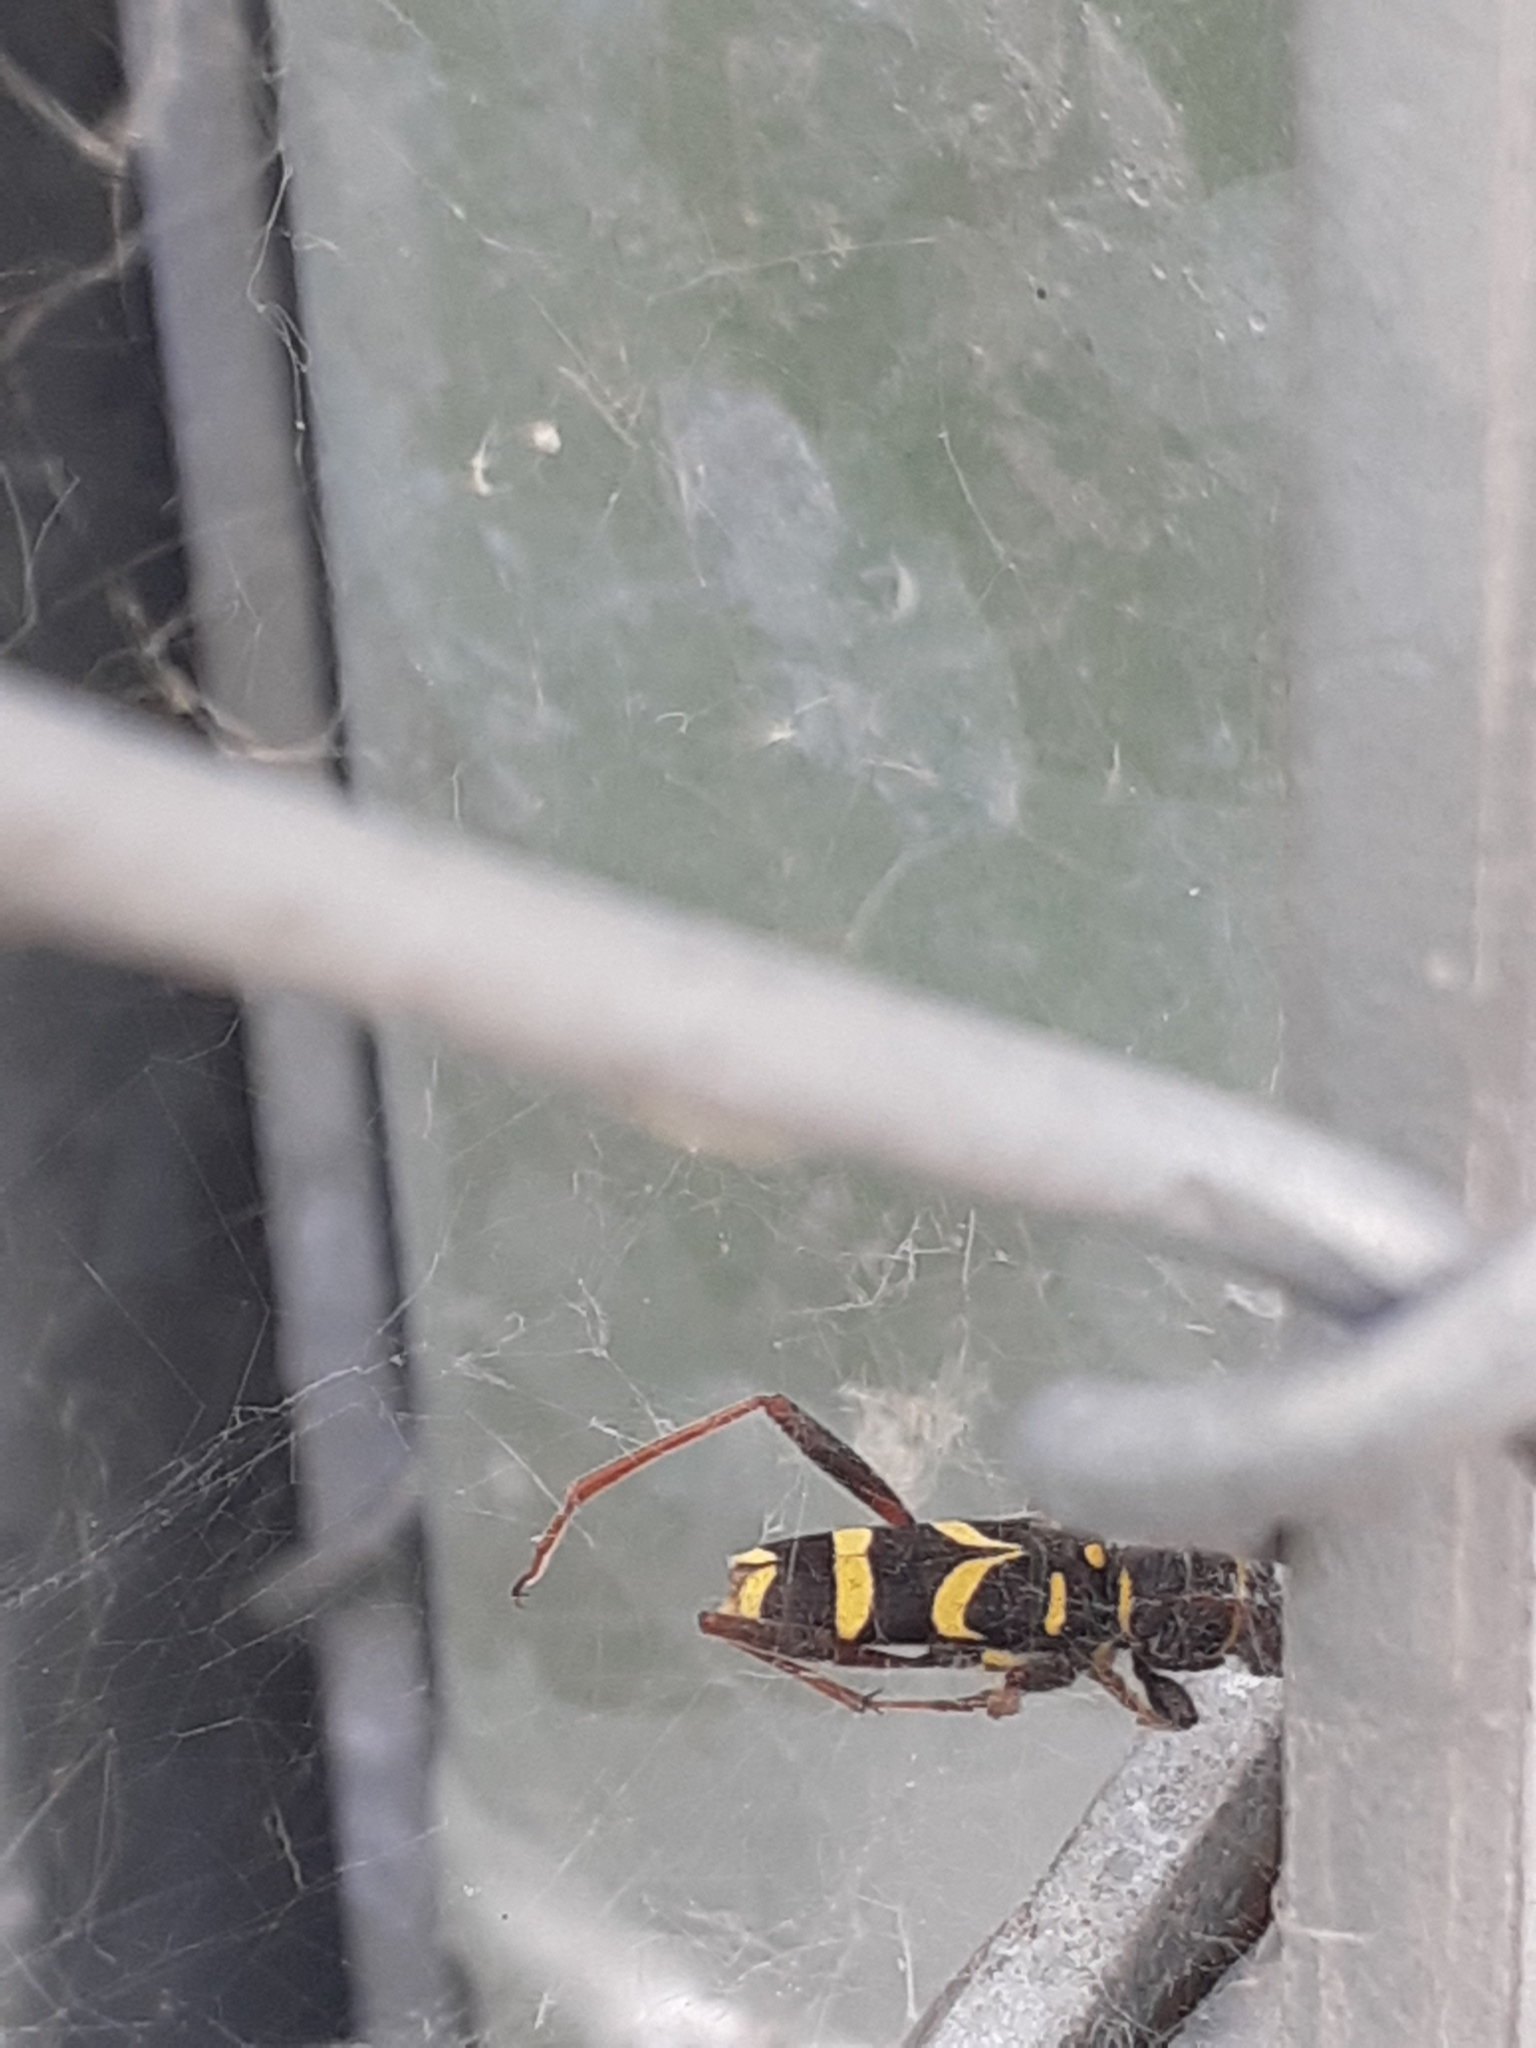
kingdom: Animalia
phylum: Arthropoda
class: Insecta
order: Coleoptera
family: Cerambycidae
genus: Clytus
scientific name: Clytus arietis
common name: Wasp beetle
